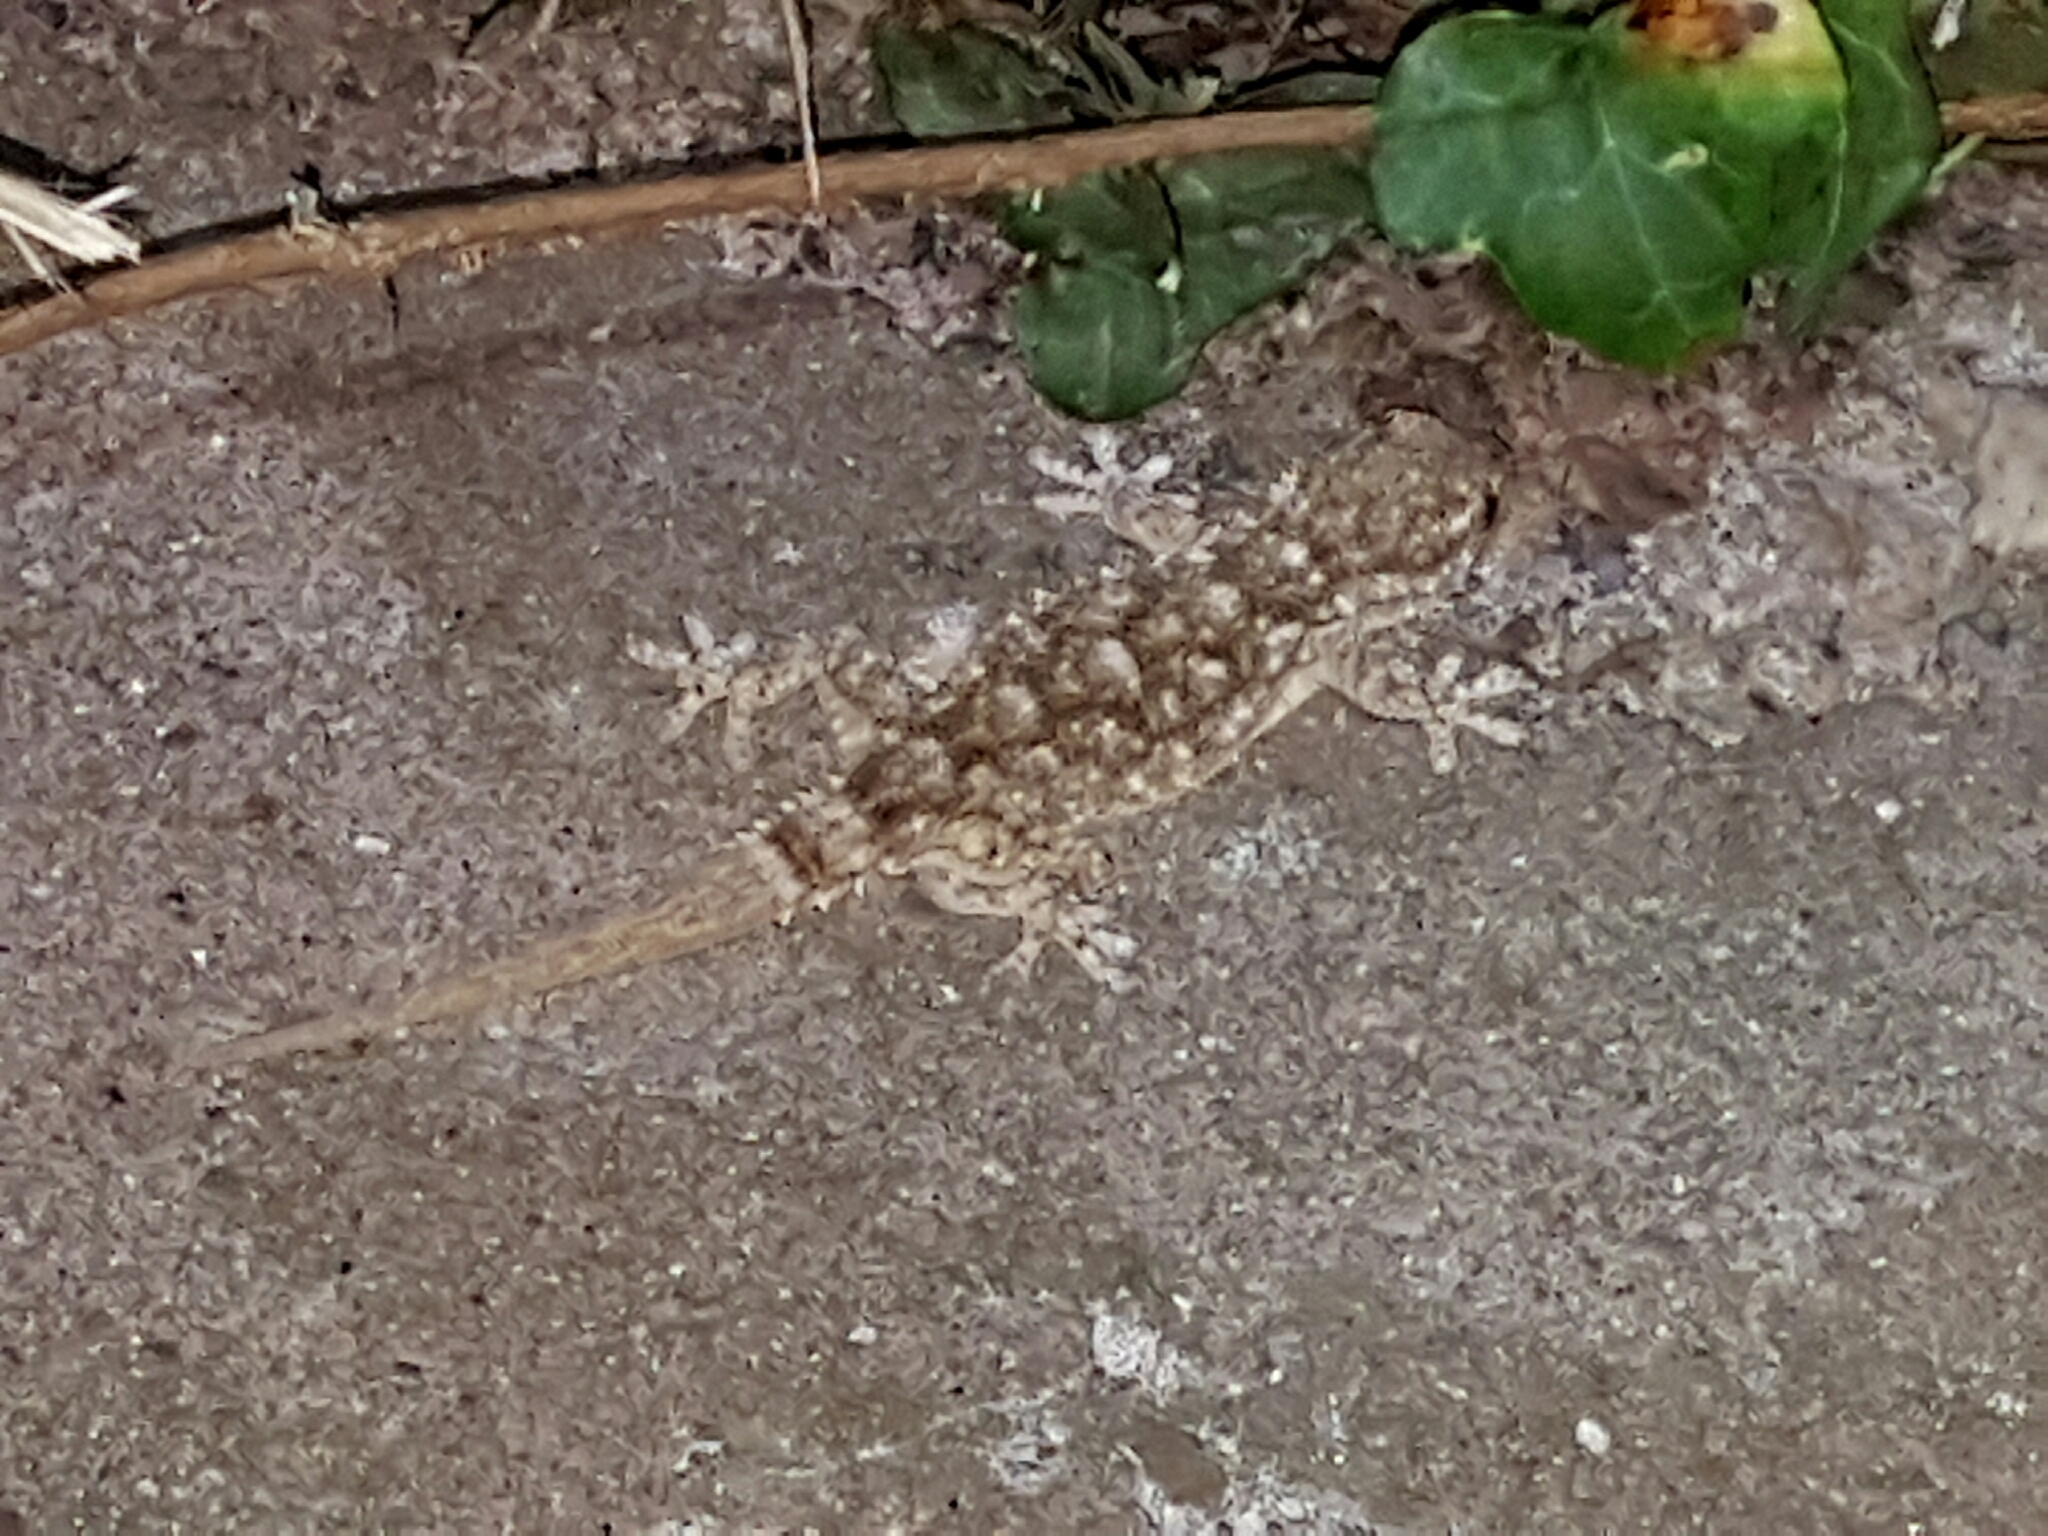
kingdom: Animalia
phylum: Chordata
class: Squamata
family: Phyllodactylidae
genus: Tarentola
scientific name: Tarentola mauritanica
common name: Moorish gecko
